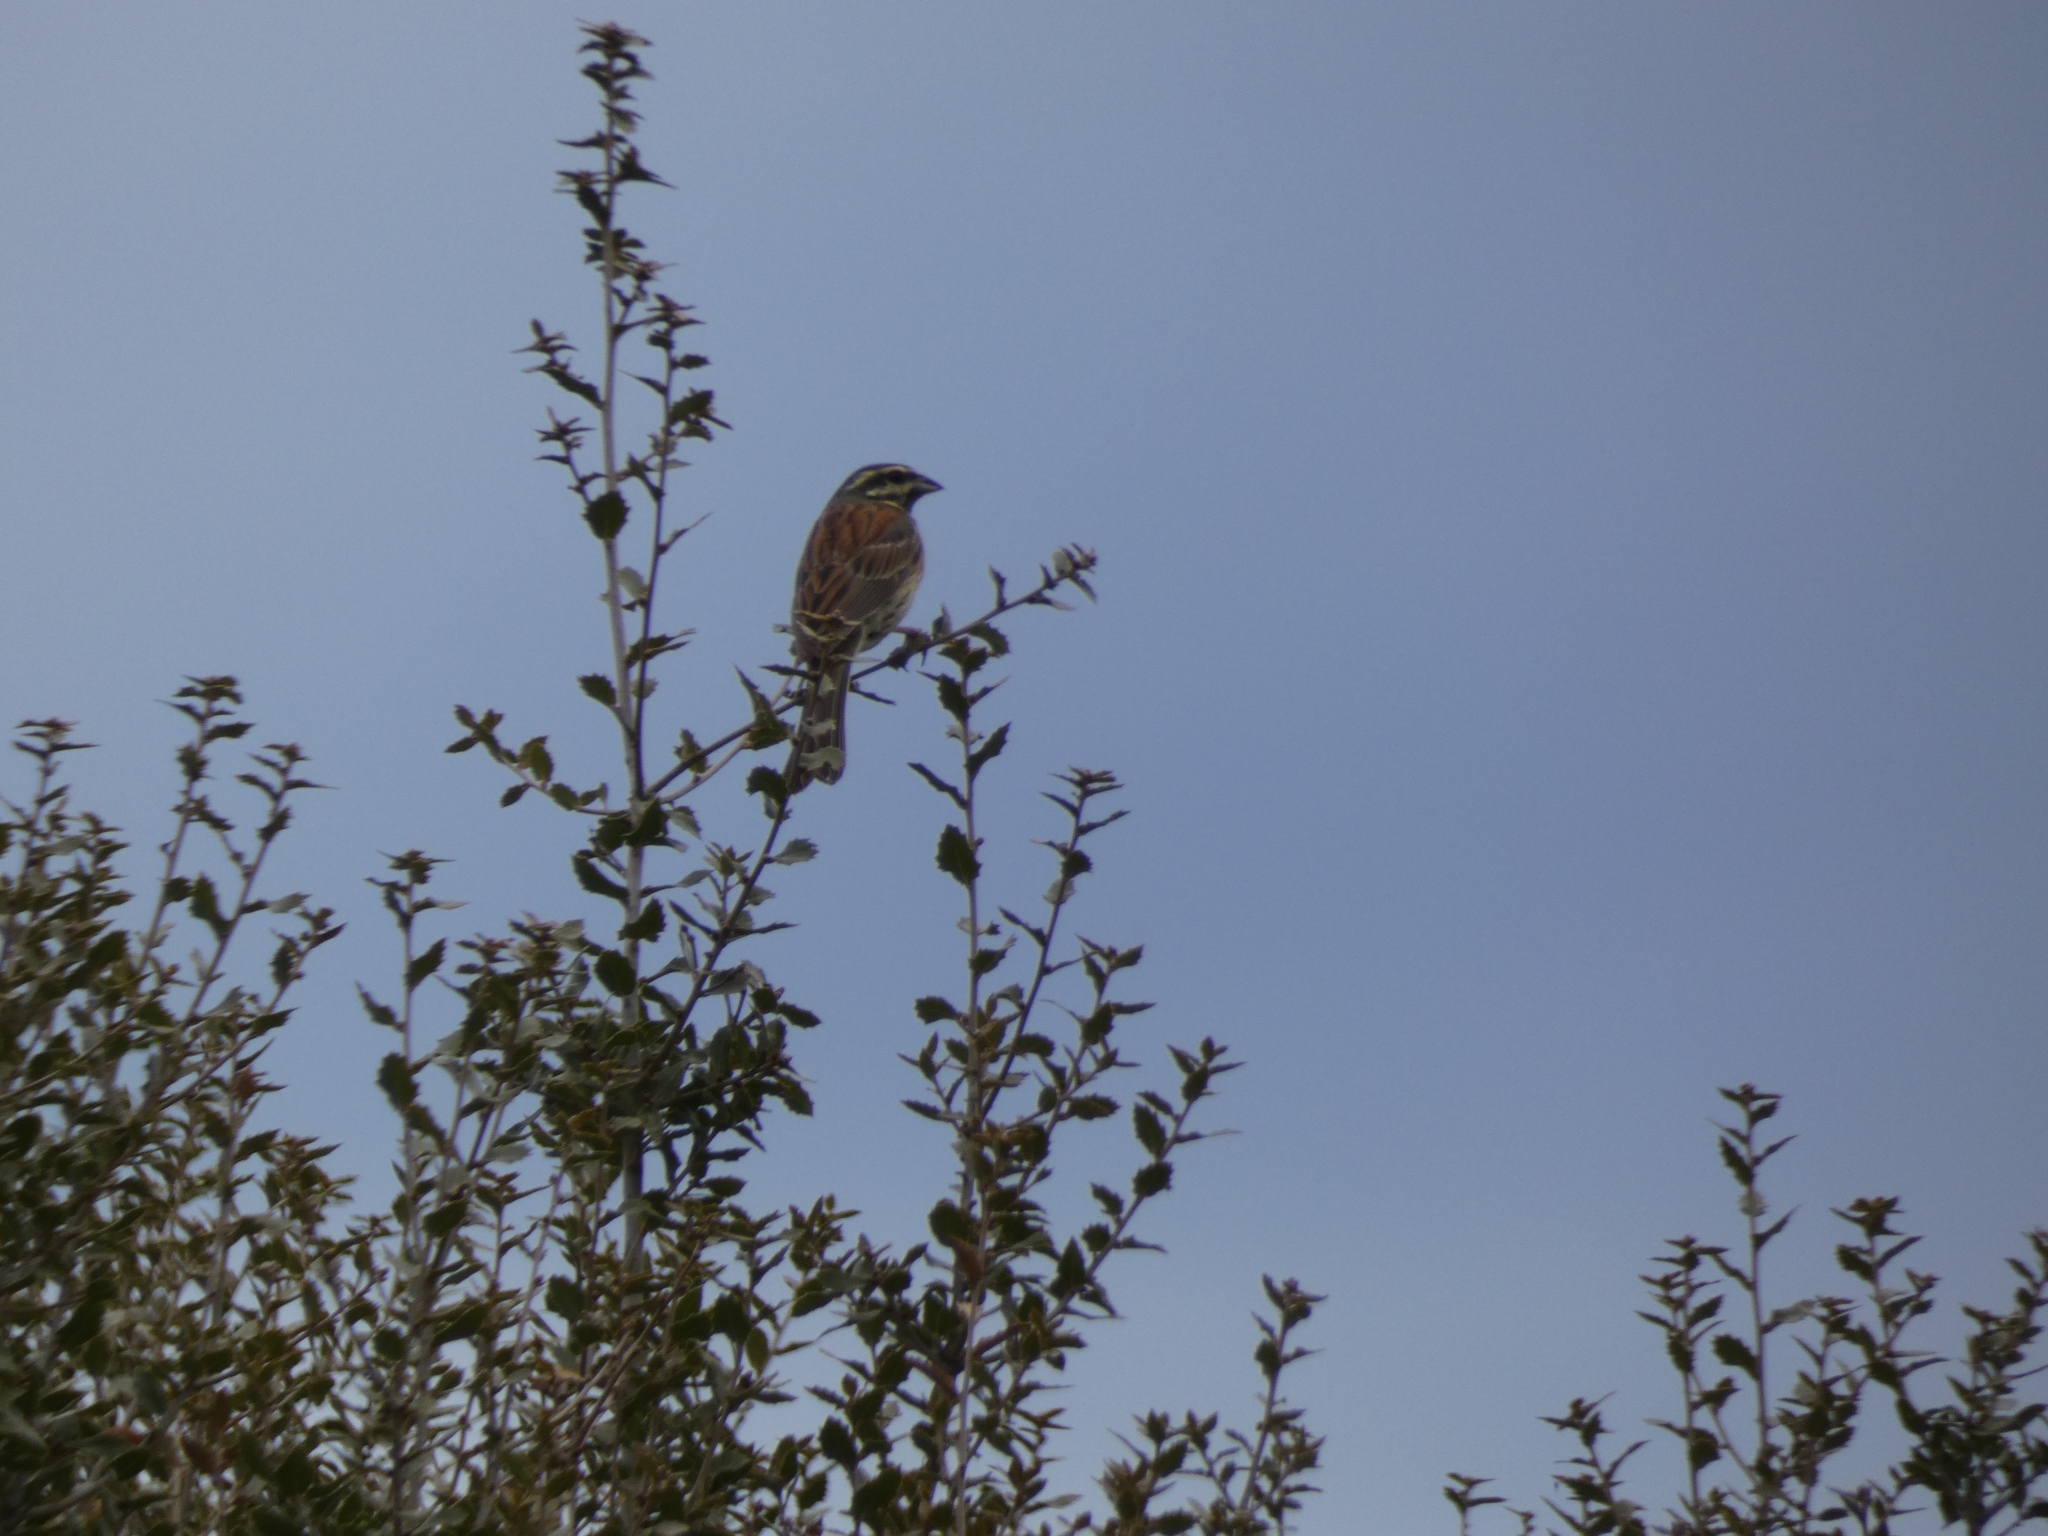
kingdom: Animalia
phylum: Chordata
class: Aves
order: Passeriformes
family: Emberizidae
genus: Emberiza
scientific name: Emberiza cirlus
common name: Cirl bunting
